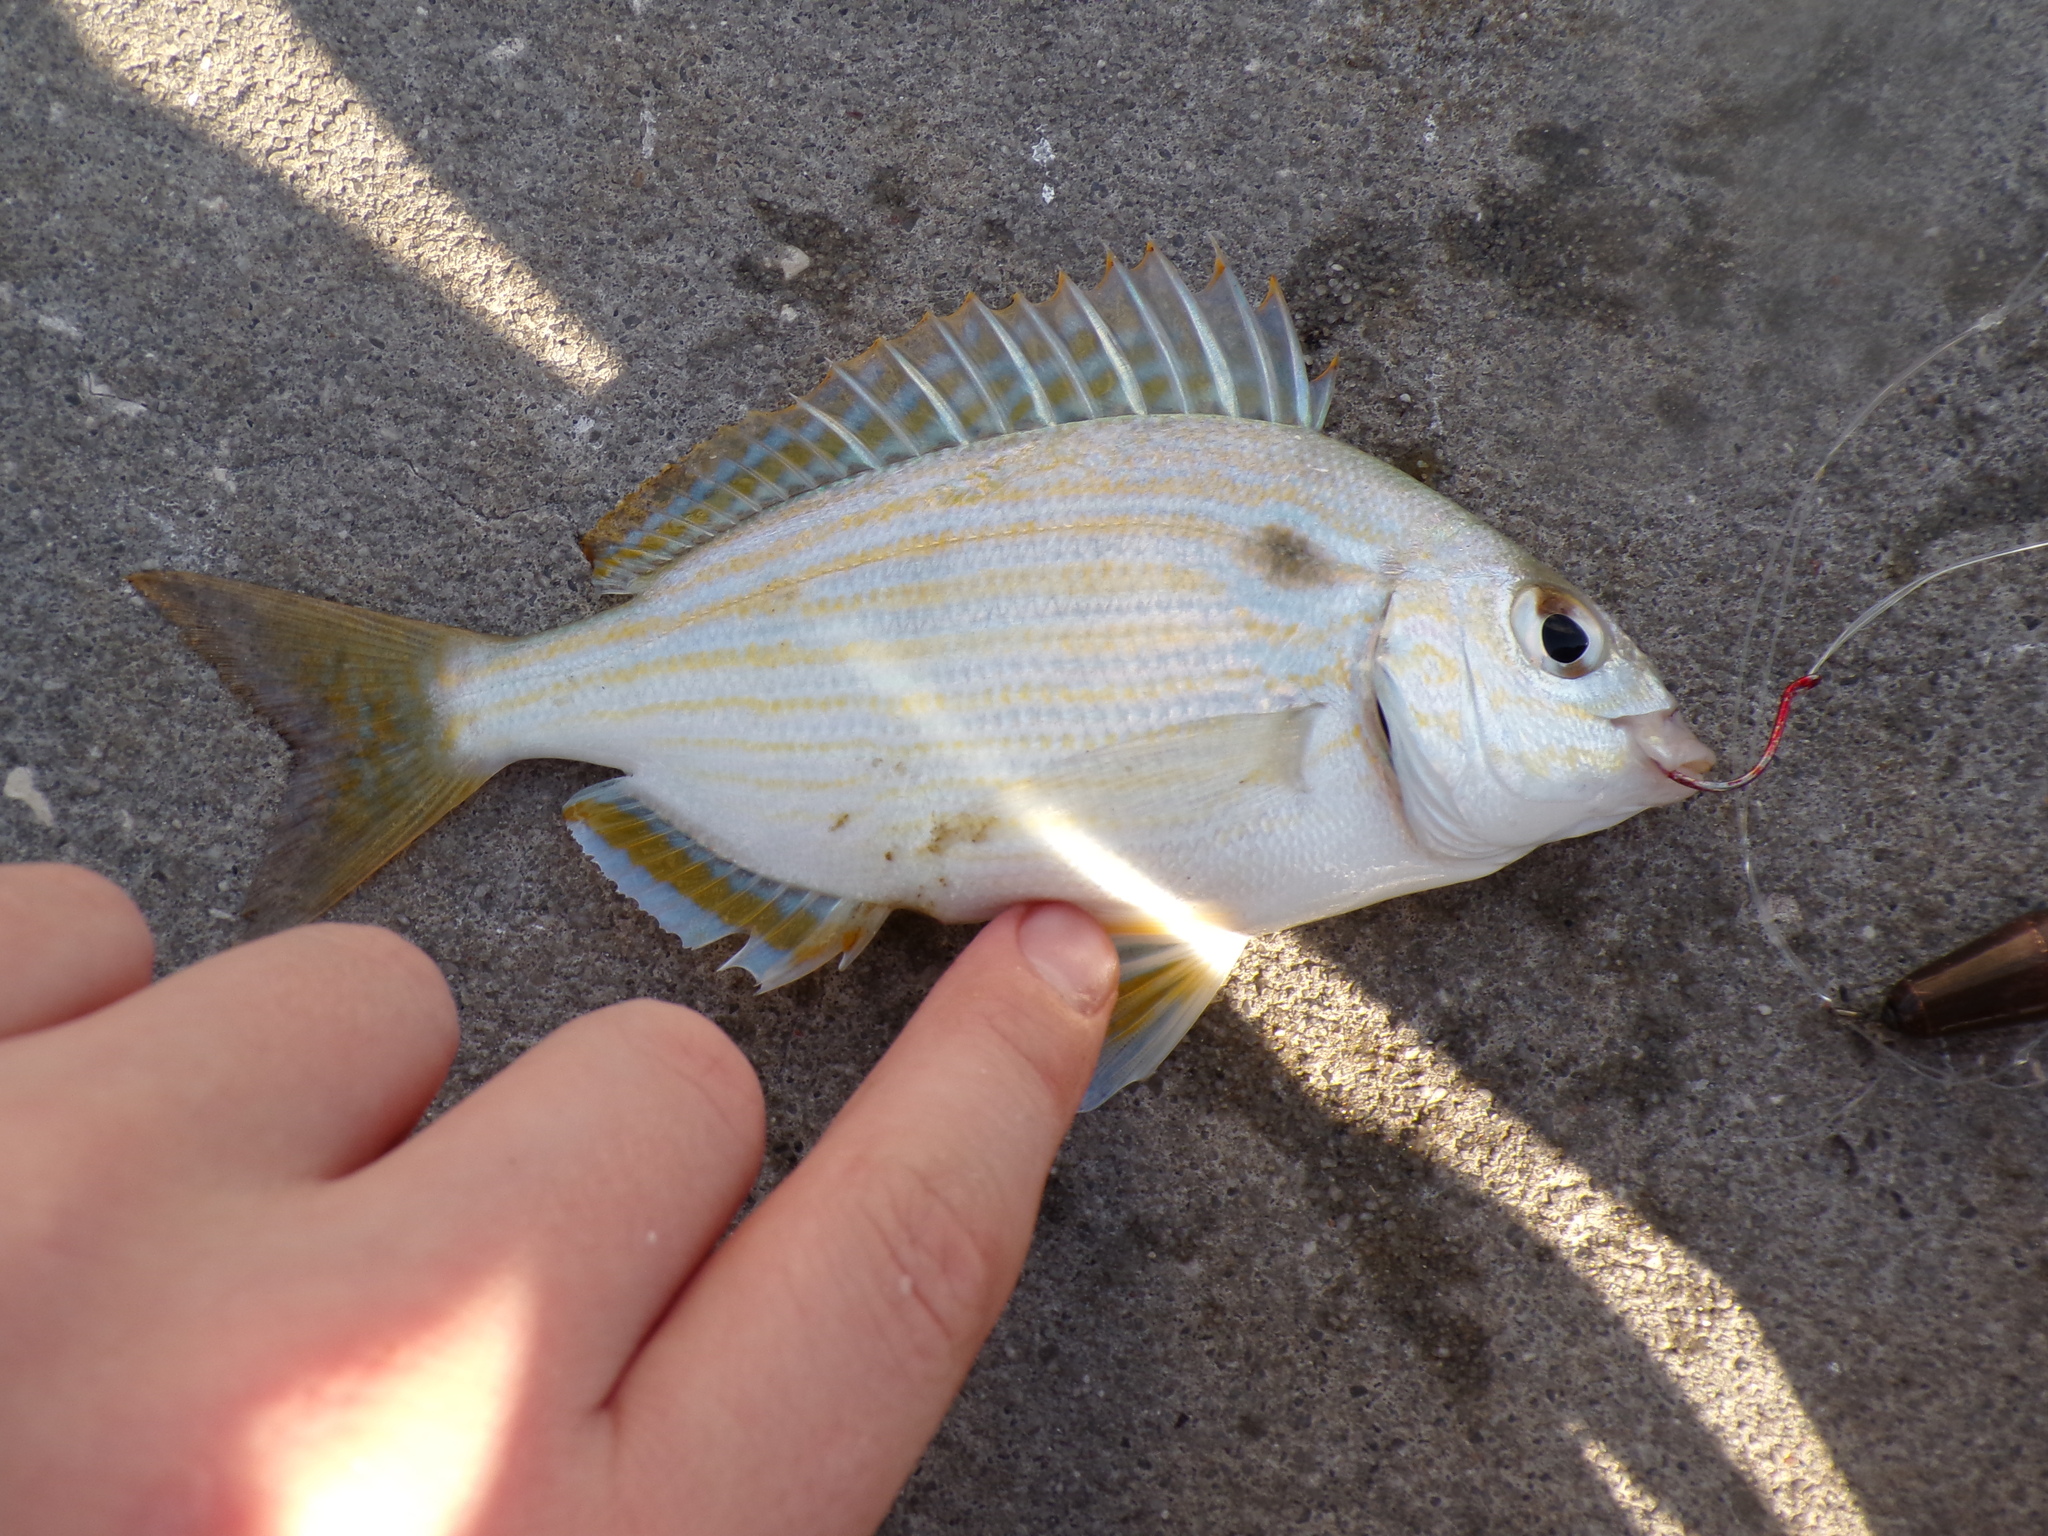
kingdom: Animalia
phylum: Chordata
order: Perciformes
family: Sparidae
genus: Lagodon
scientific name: Lagodon rhomboides
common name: Pinfish
